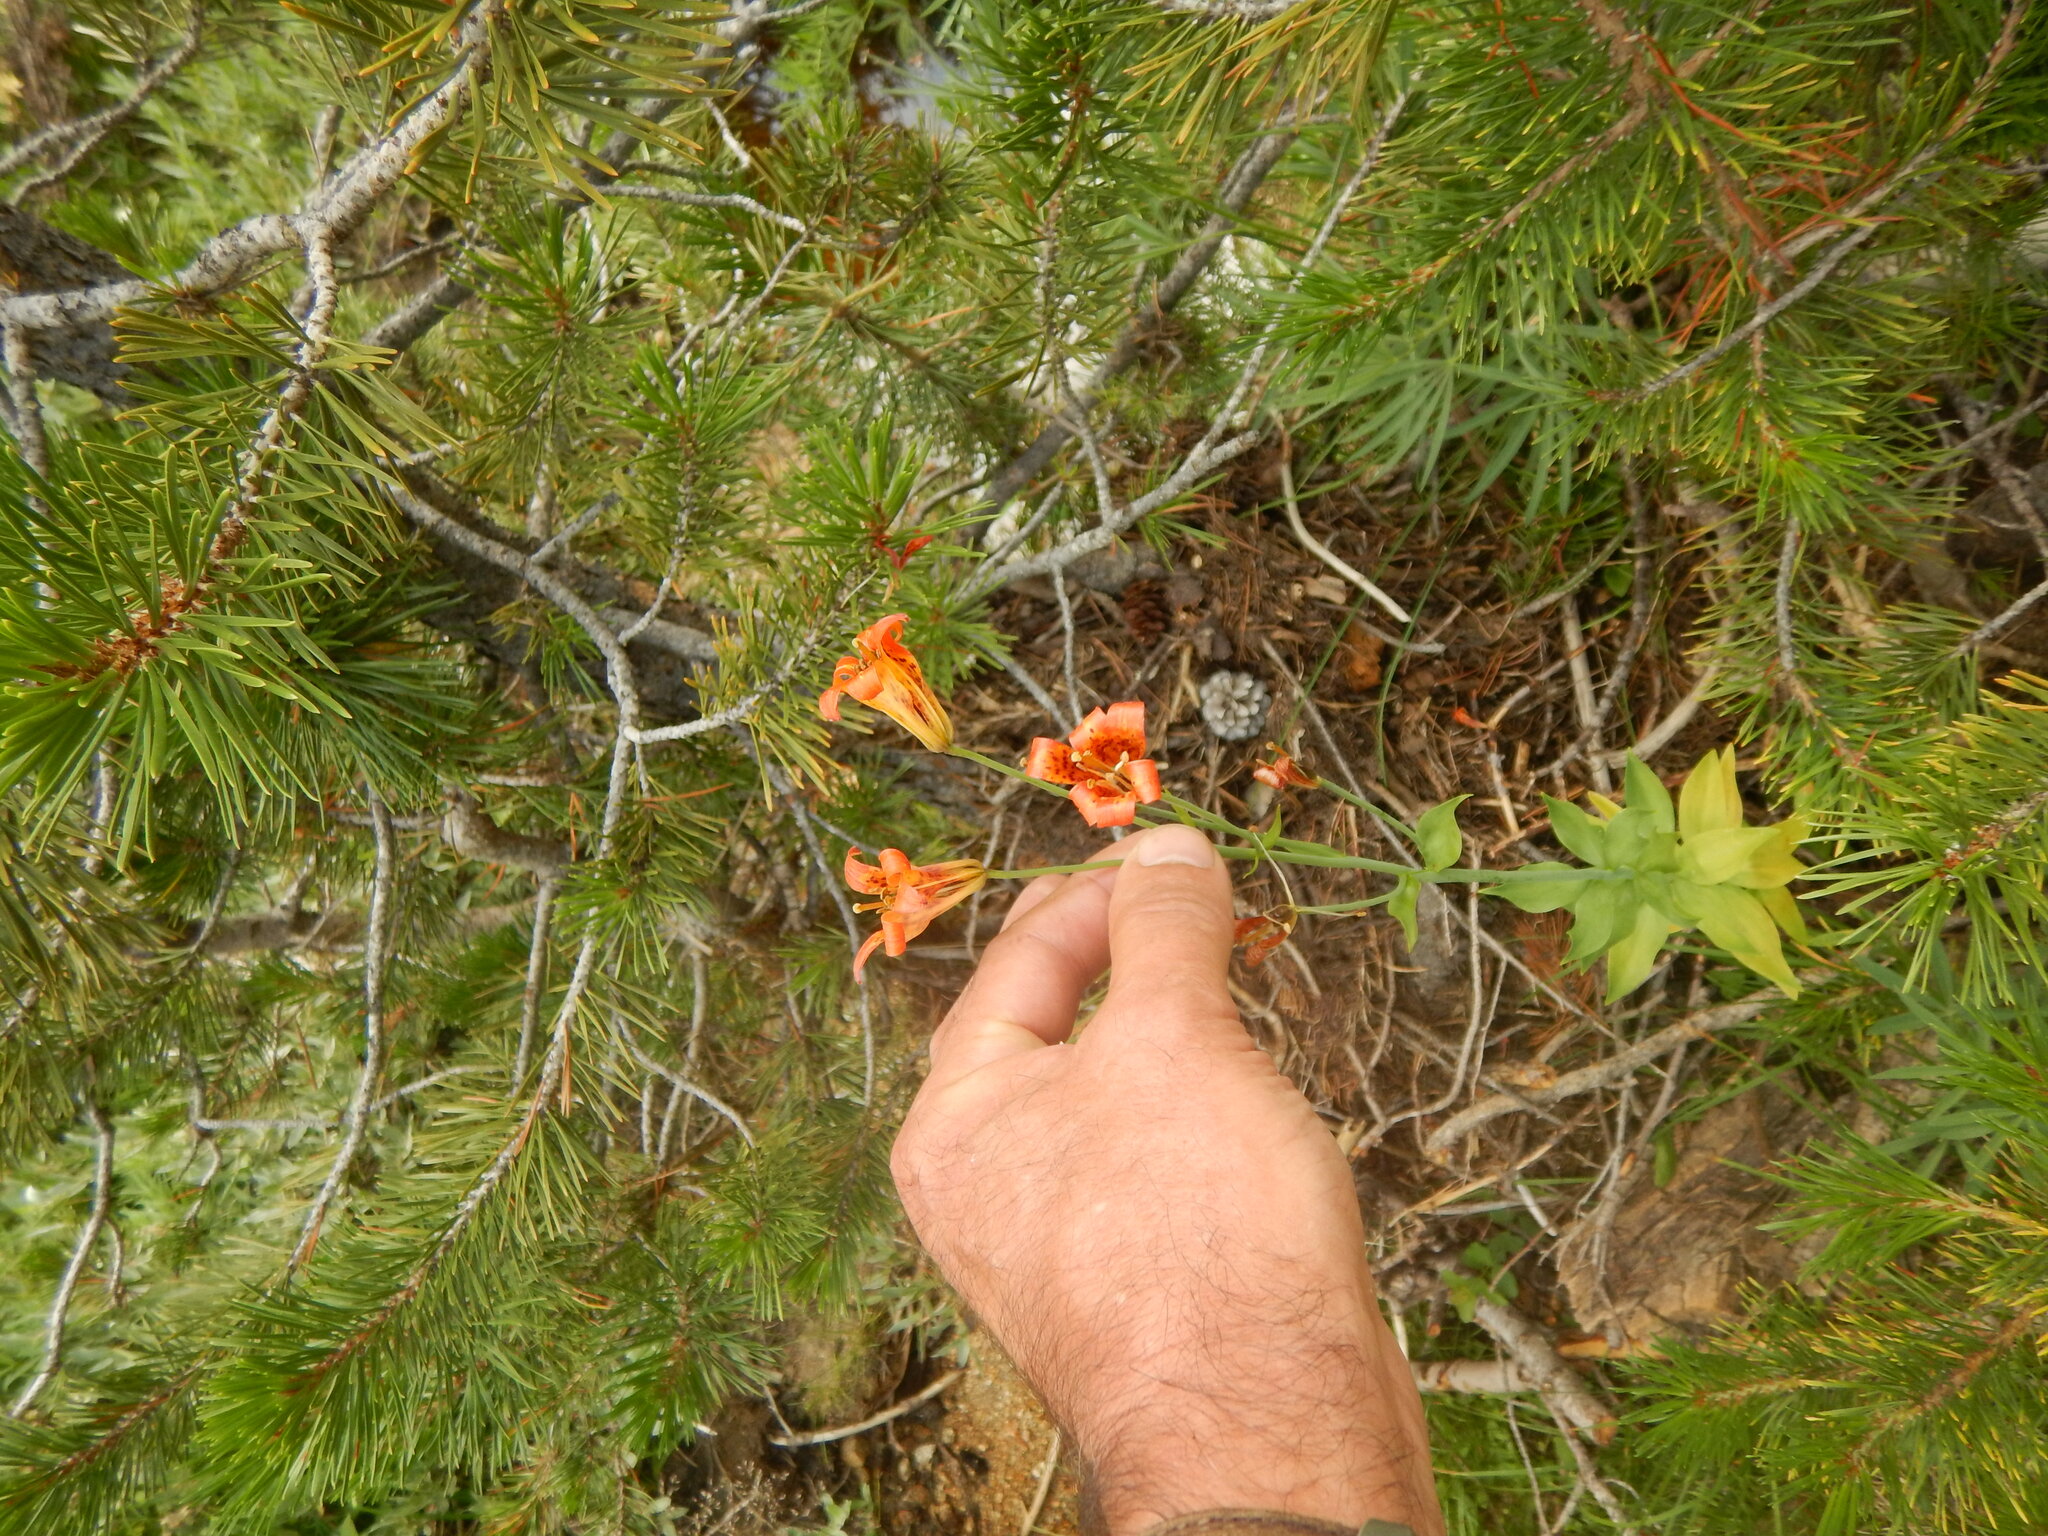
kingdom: Plantae
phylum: Tracheophyta
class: Liliopsida
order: Liliales
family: Liliaceae
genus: Lilium
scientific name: Lilium parvum
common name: Alpine lily
